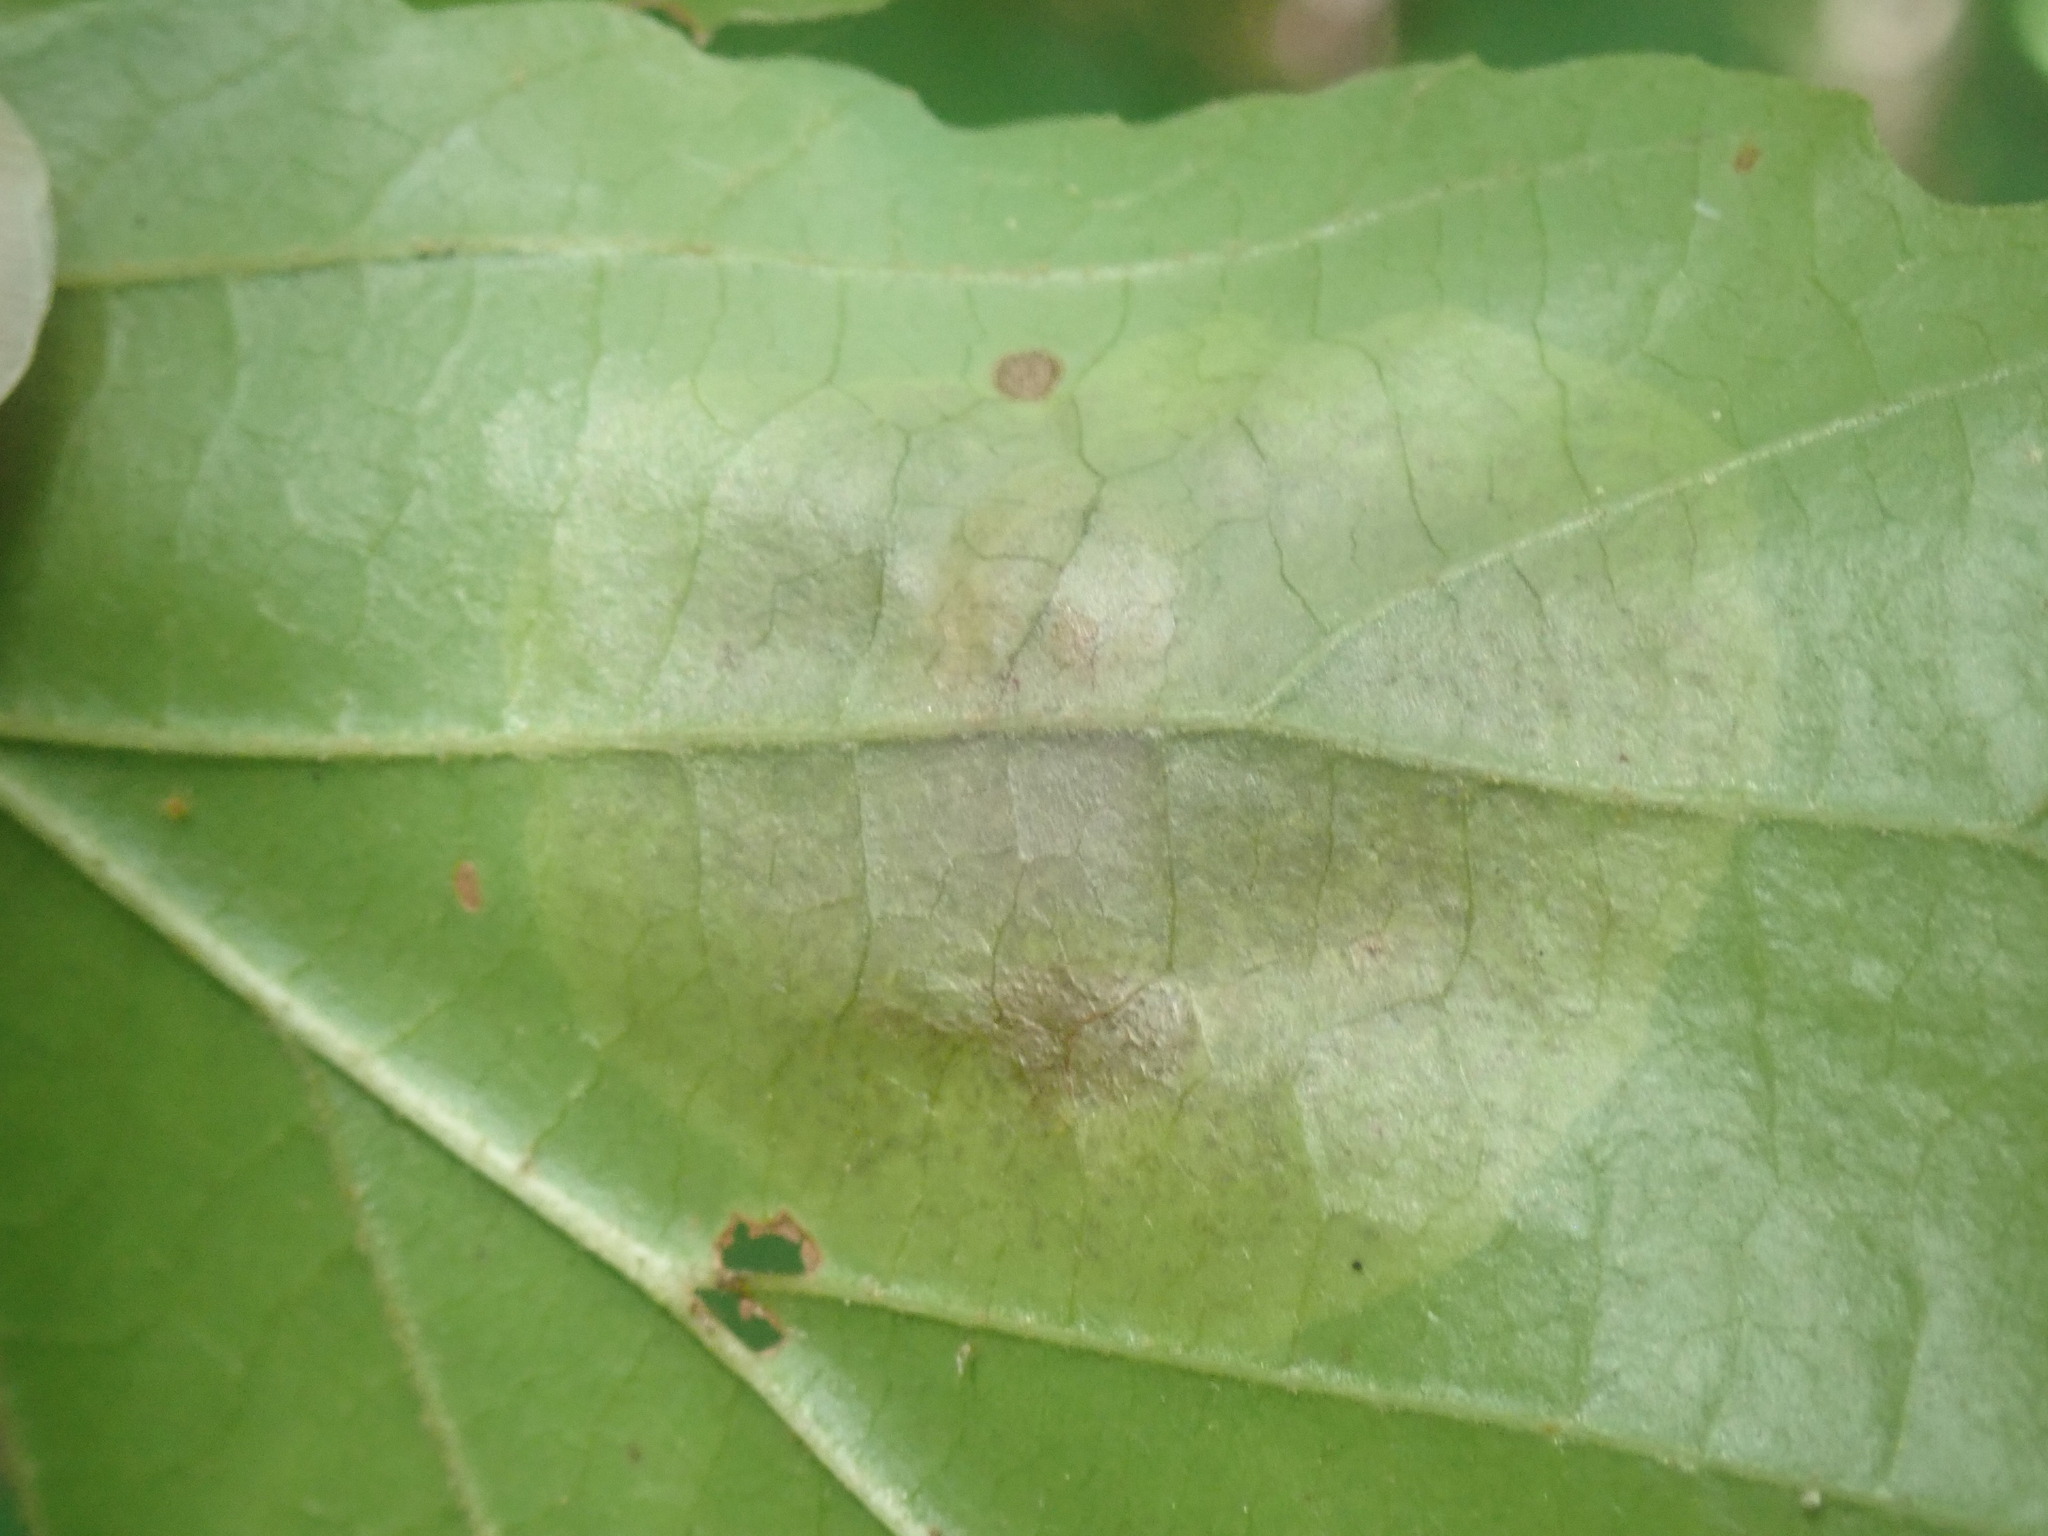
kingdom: Animalia
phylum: Arthropoda
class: Insecta
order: Lepidoptera
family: Gracillariidae
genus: Cameraria
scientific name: Cameraria hamameliella
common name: Witchhazel leafminer
